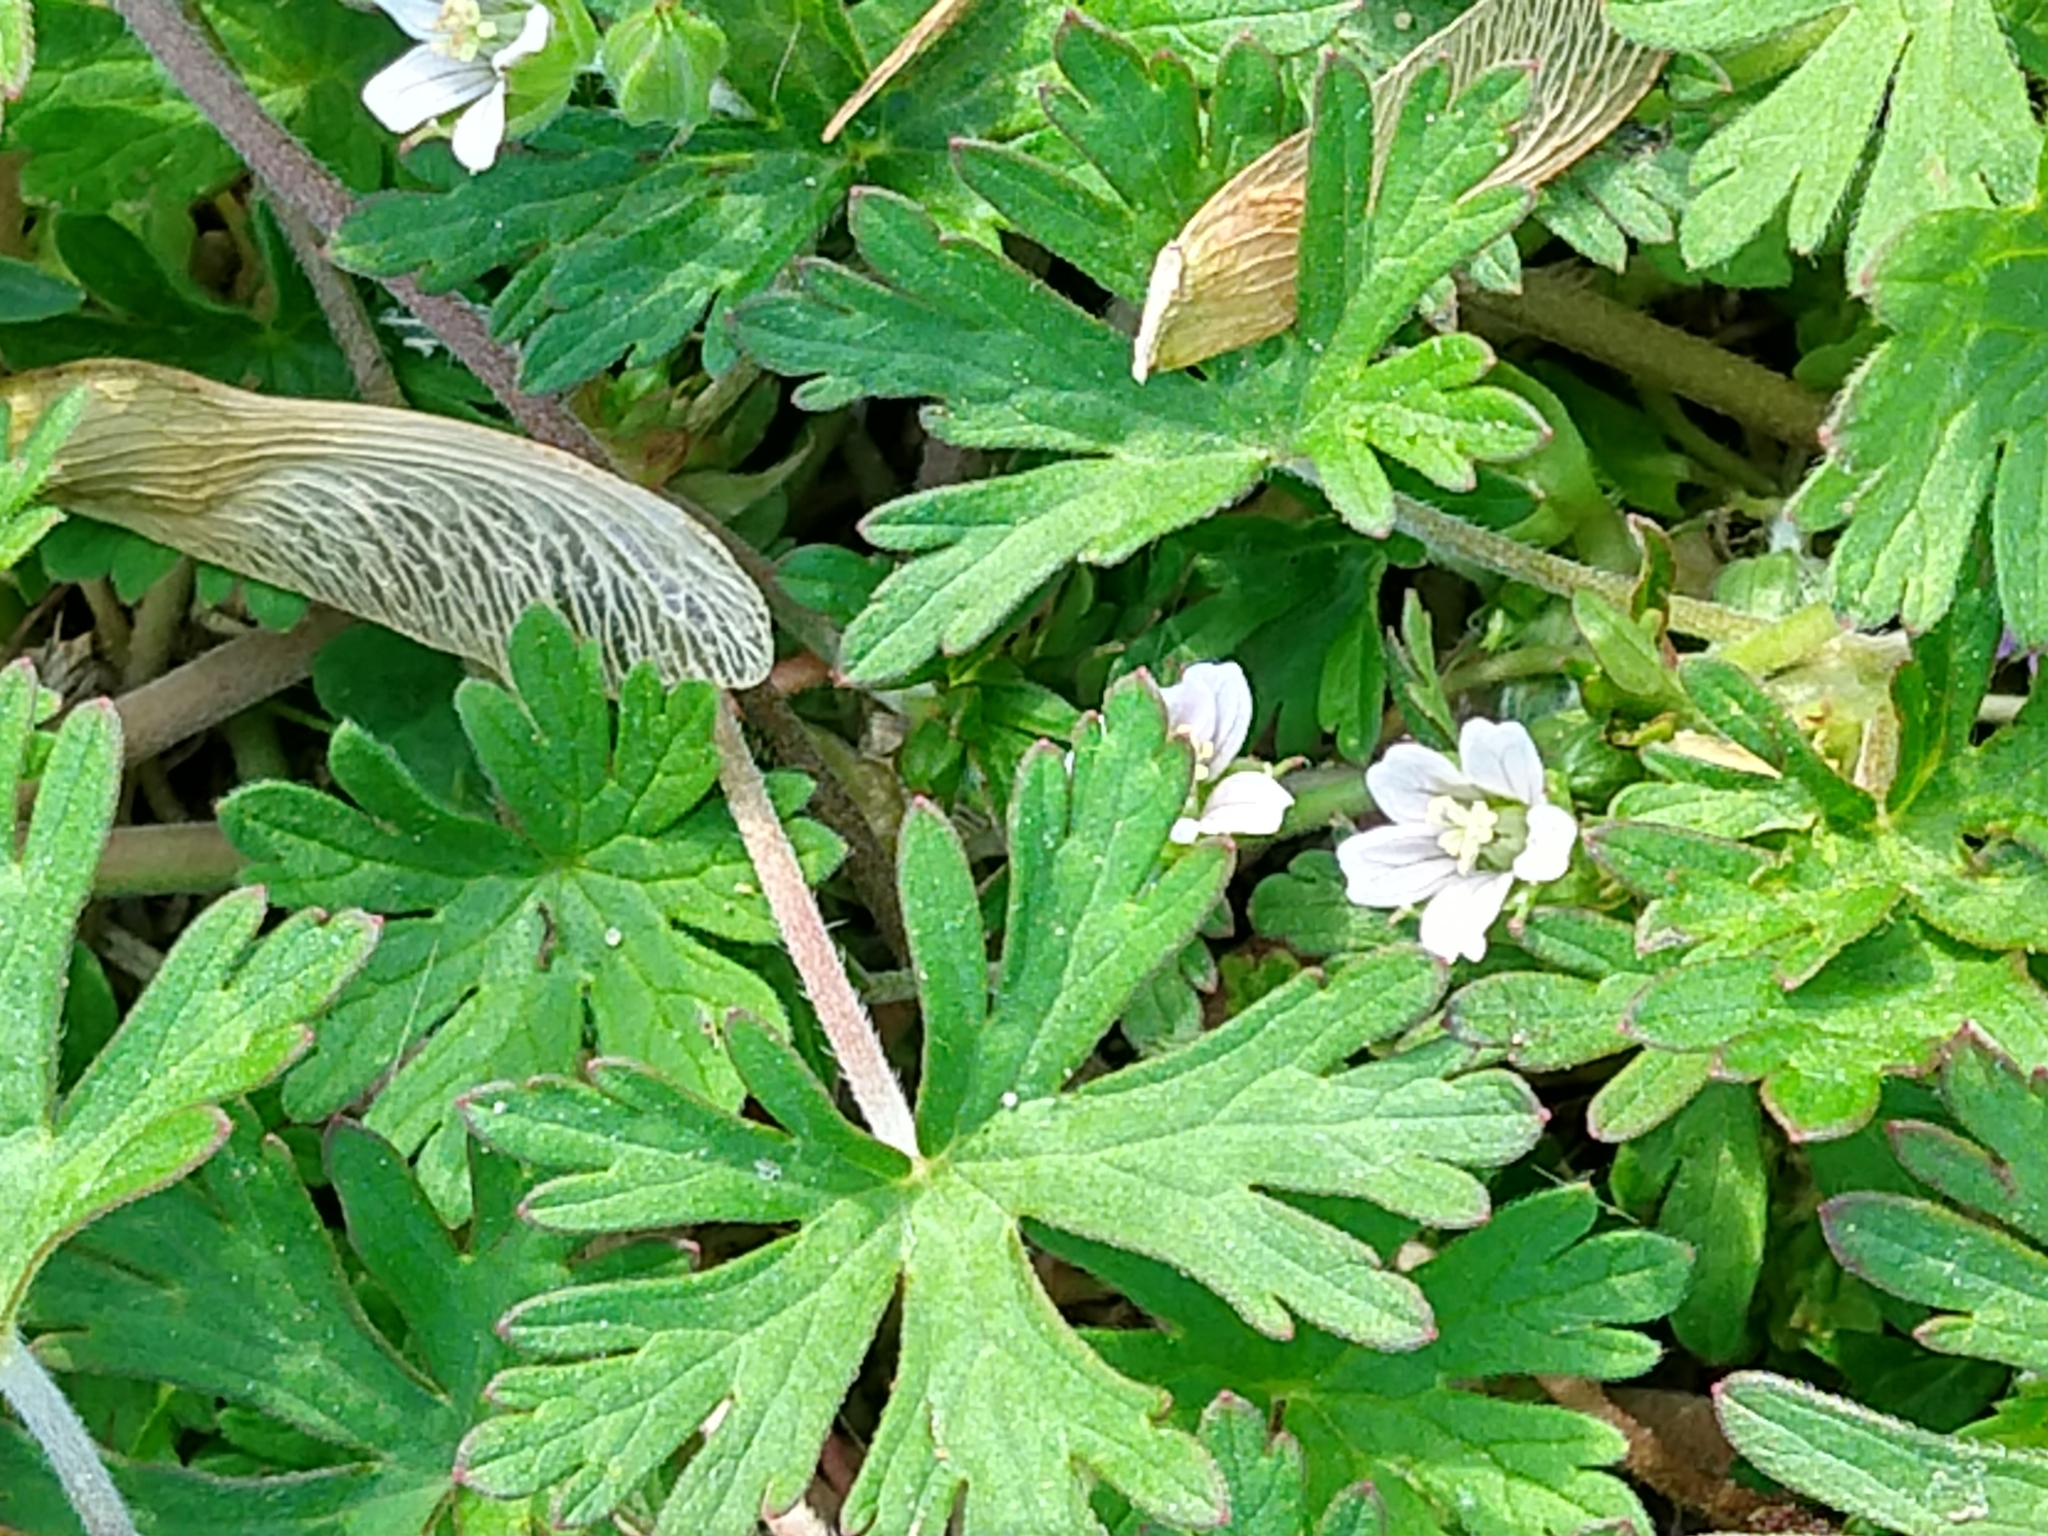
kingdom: Plantae
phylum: Tracheophyta
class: Magnoliopsida
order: Geraniales
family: Geraniaceae
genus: Geranium
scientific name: Geranium carolinianum
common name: Carolina crane's-bill
